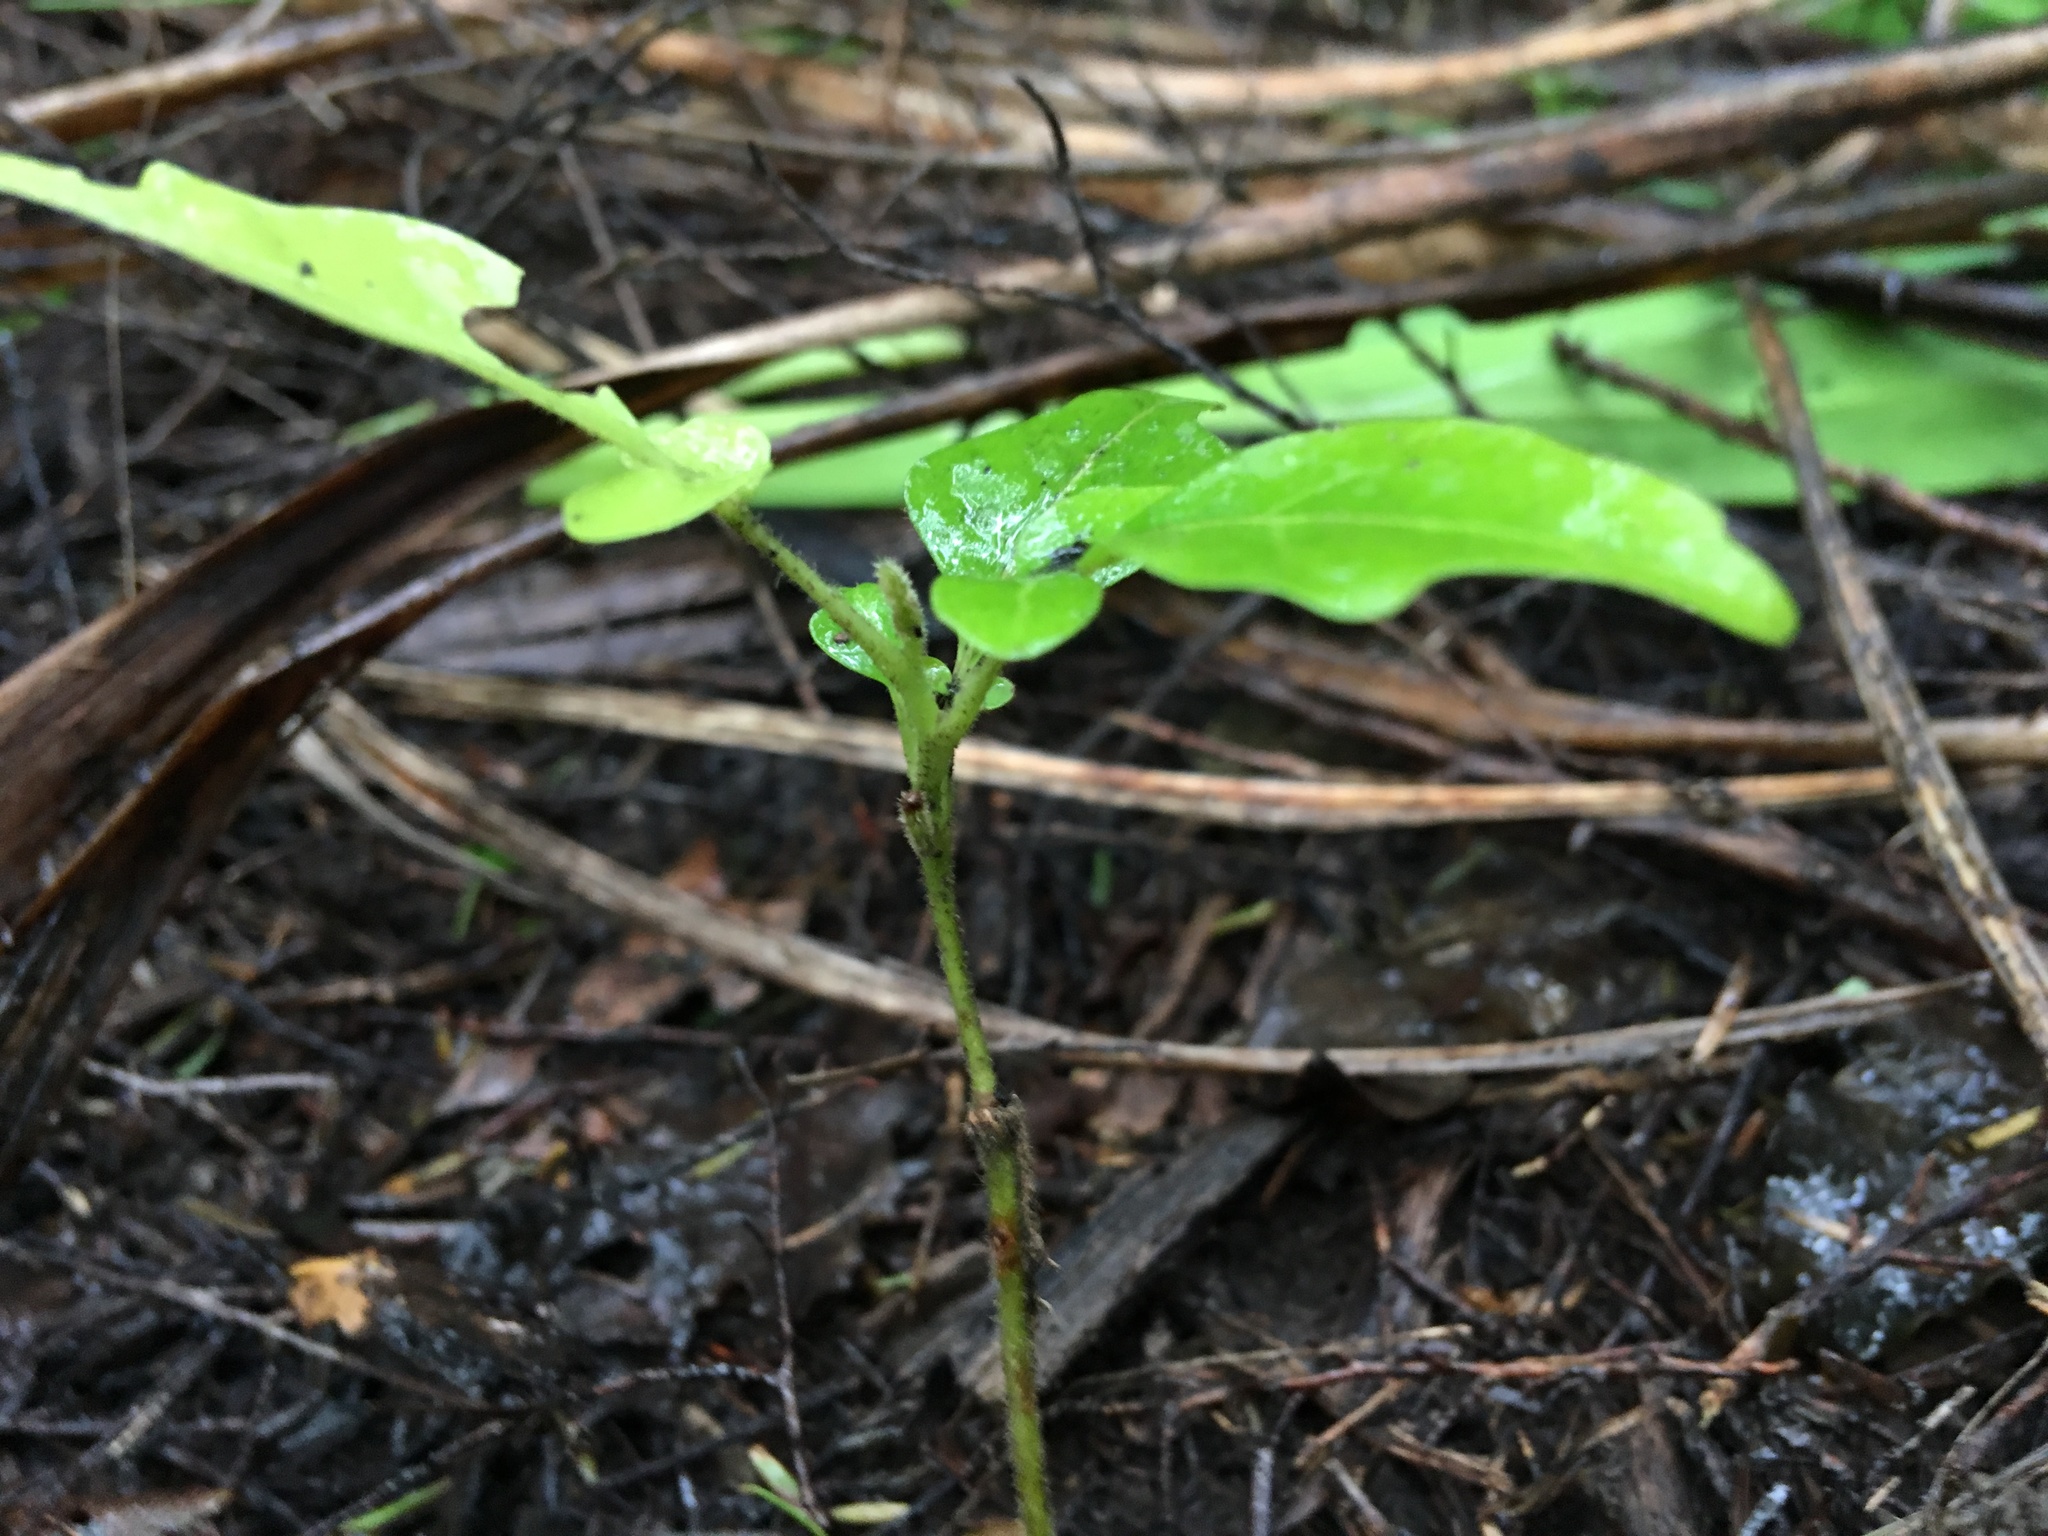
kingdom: Plantae
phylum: Tracheophyta
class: Magnoliopsida
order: Sapindales
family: Meliaceae
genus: Didymocheton
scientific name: Didymocheton spectabilis
